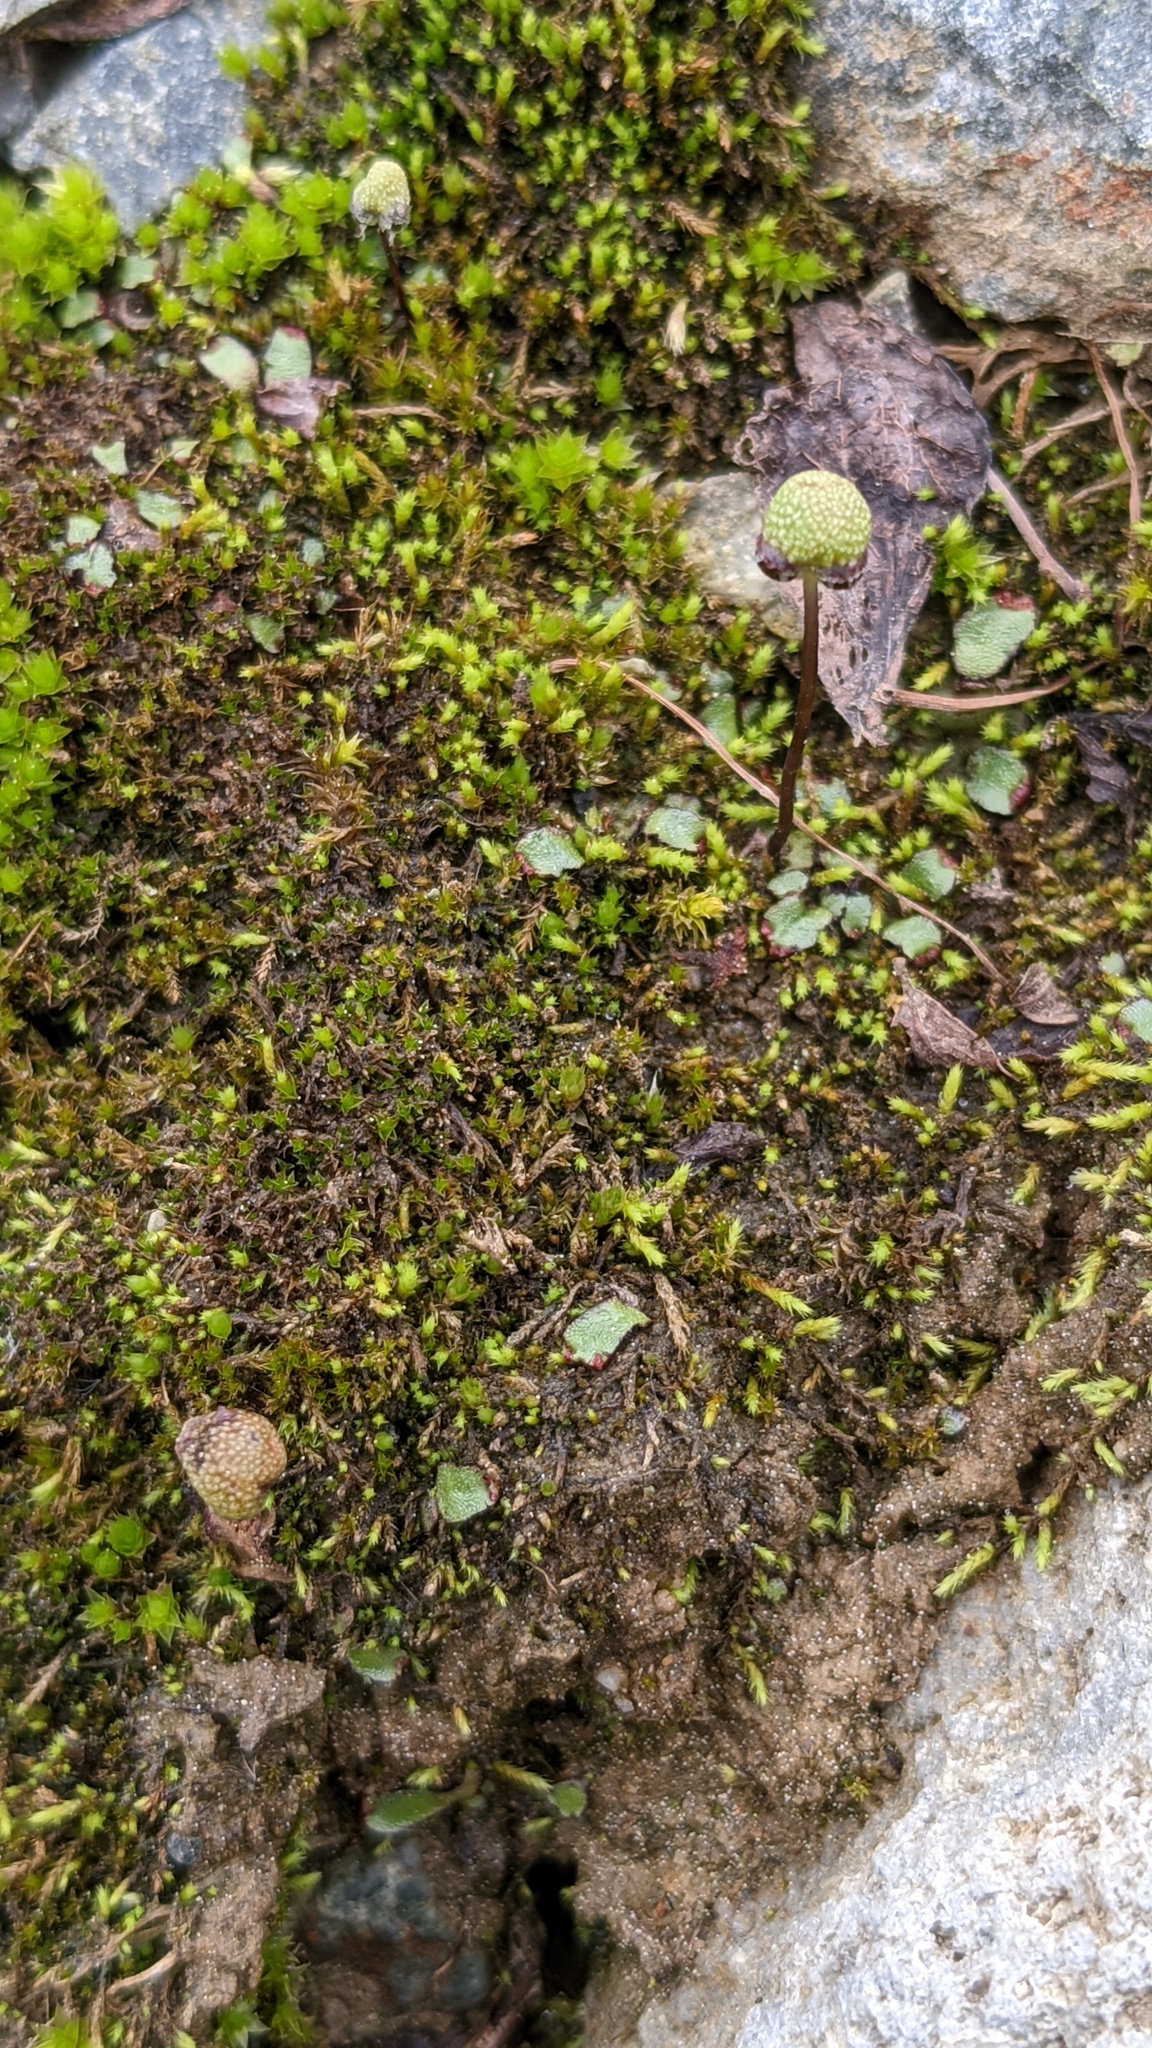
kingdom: Plantae
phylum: Marchantiophyta
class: Marchantiopsida
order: Marchantiales
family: Aytoniaceae
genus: Mannia
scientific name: Mannia gracilis
